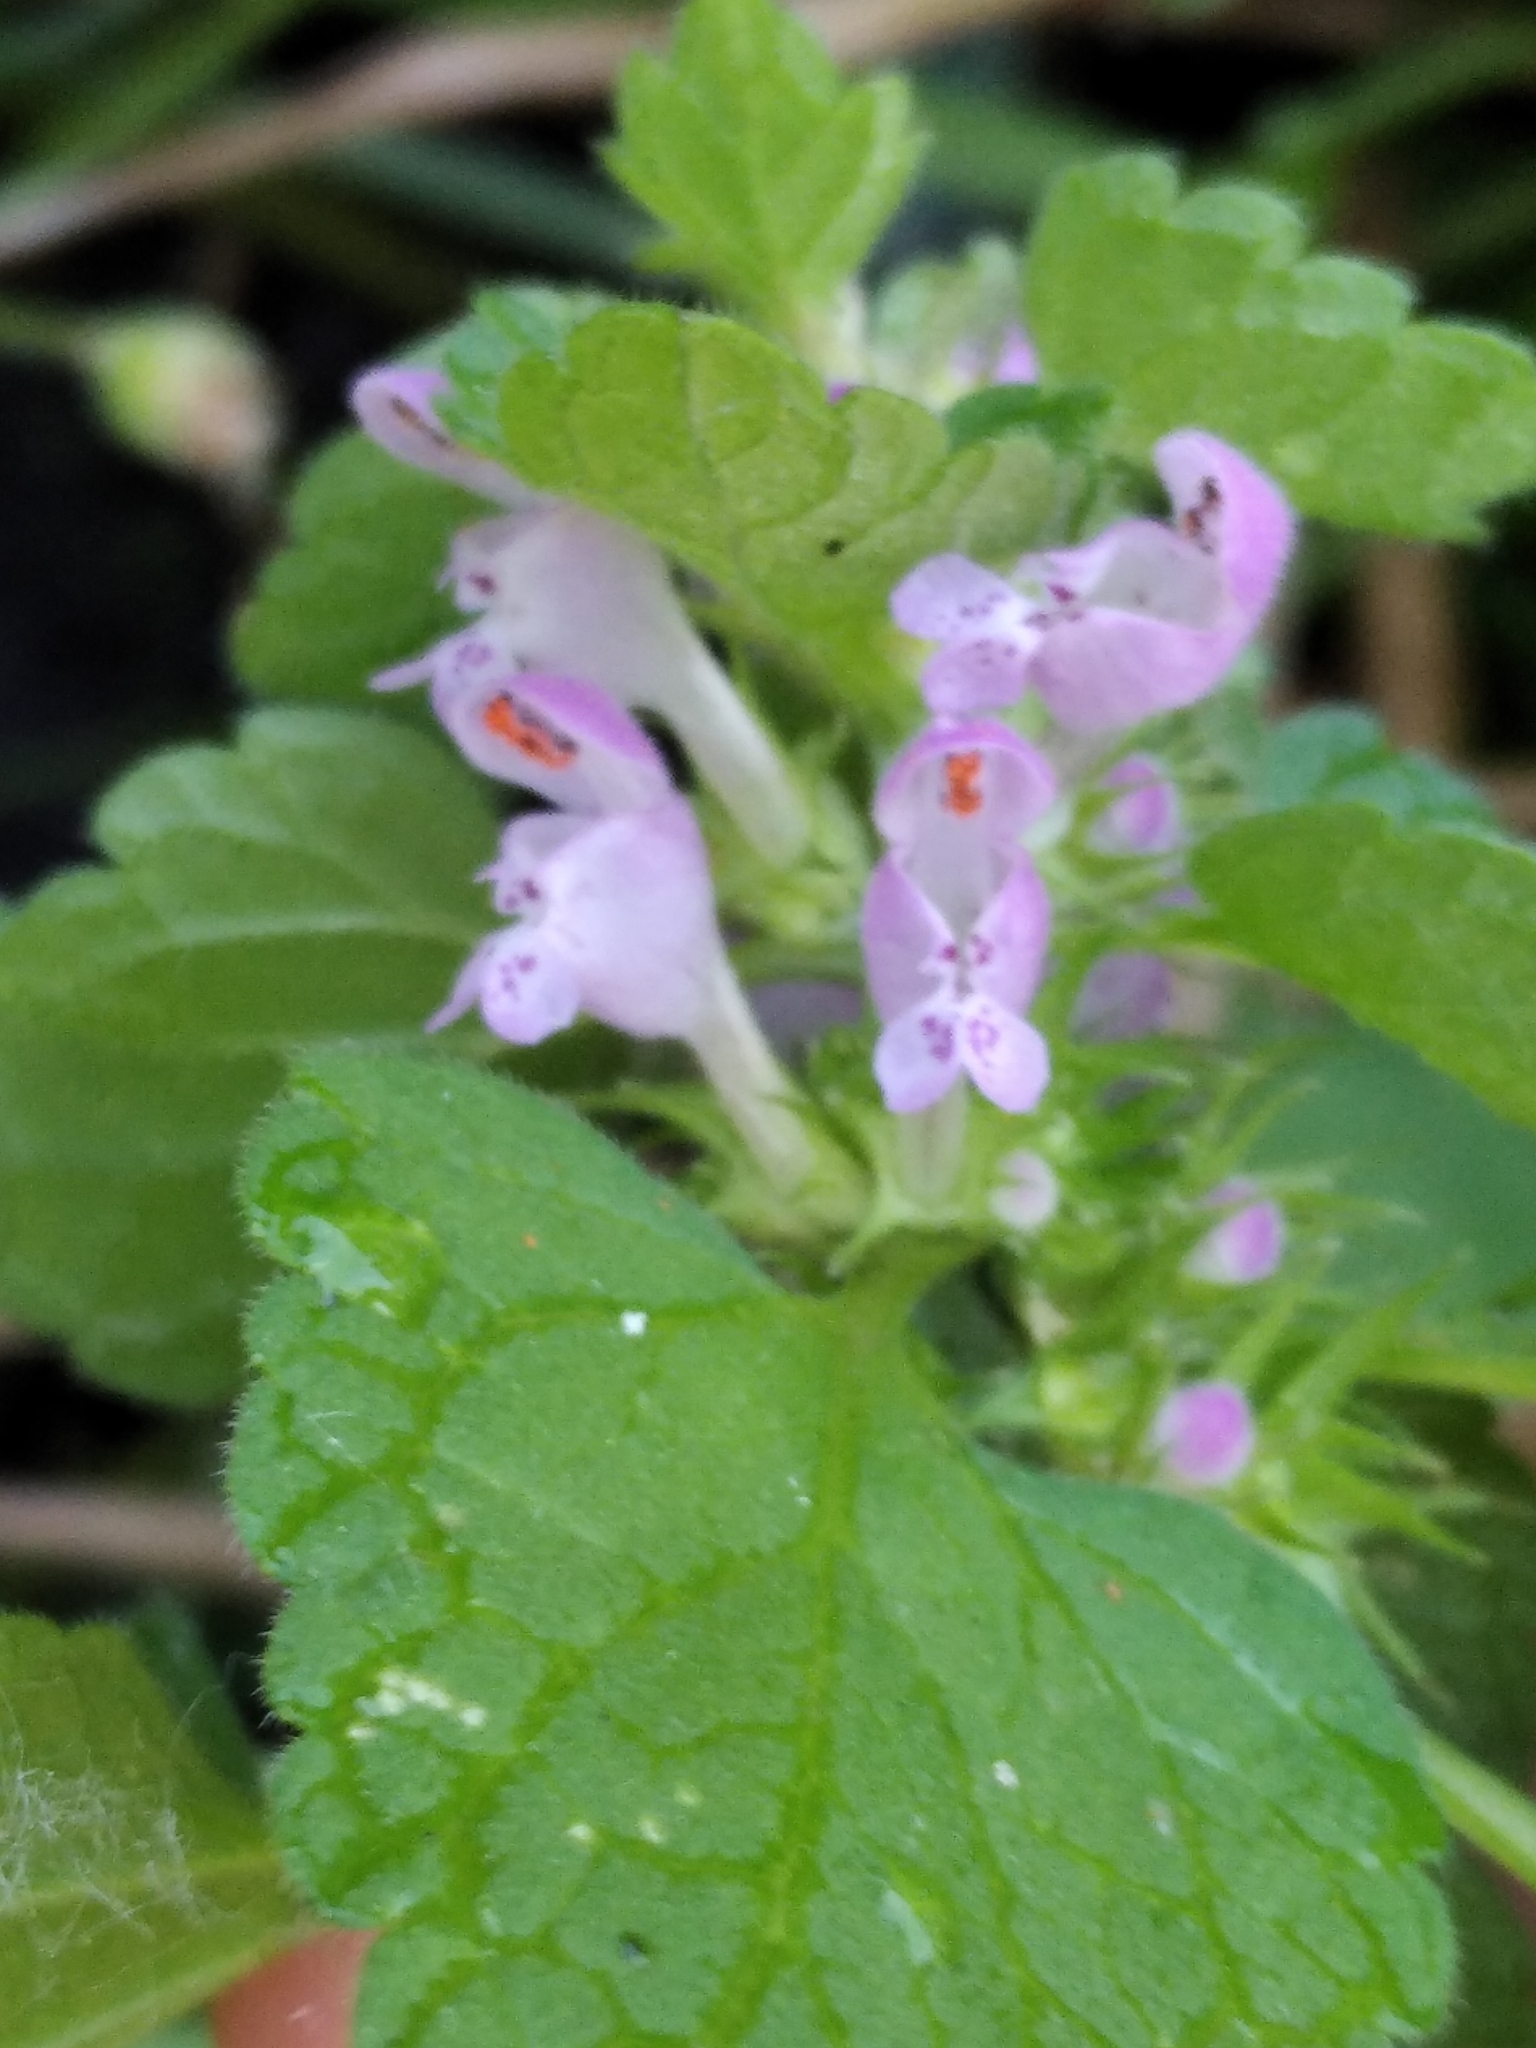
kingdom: Plantae
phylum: Tracheophyta
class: Magnoliopsida
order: Lamiales
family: Lamiaceae
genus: Lamium
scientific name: Lamium purpureum
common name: Red dead-nettle
